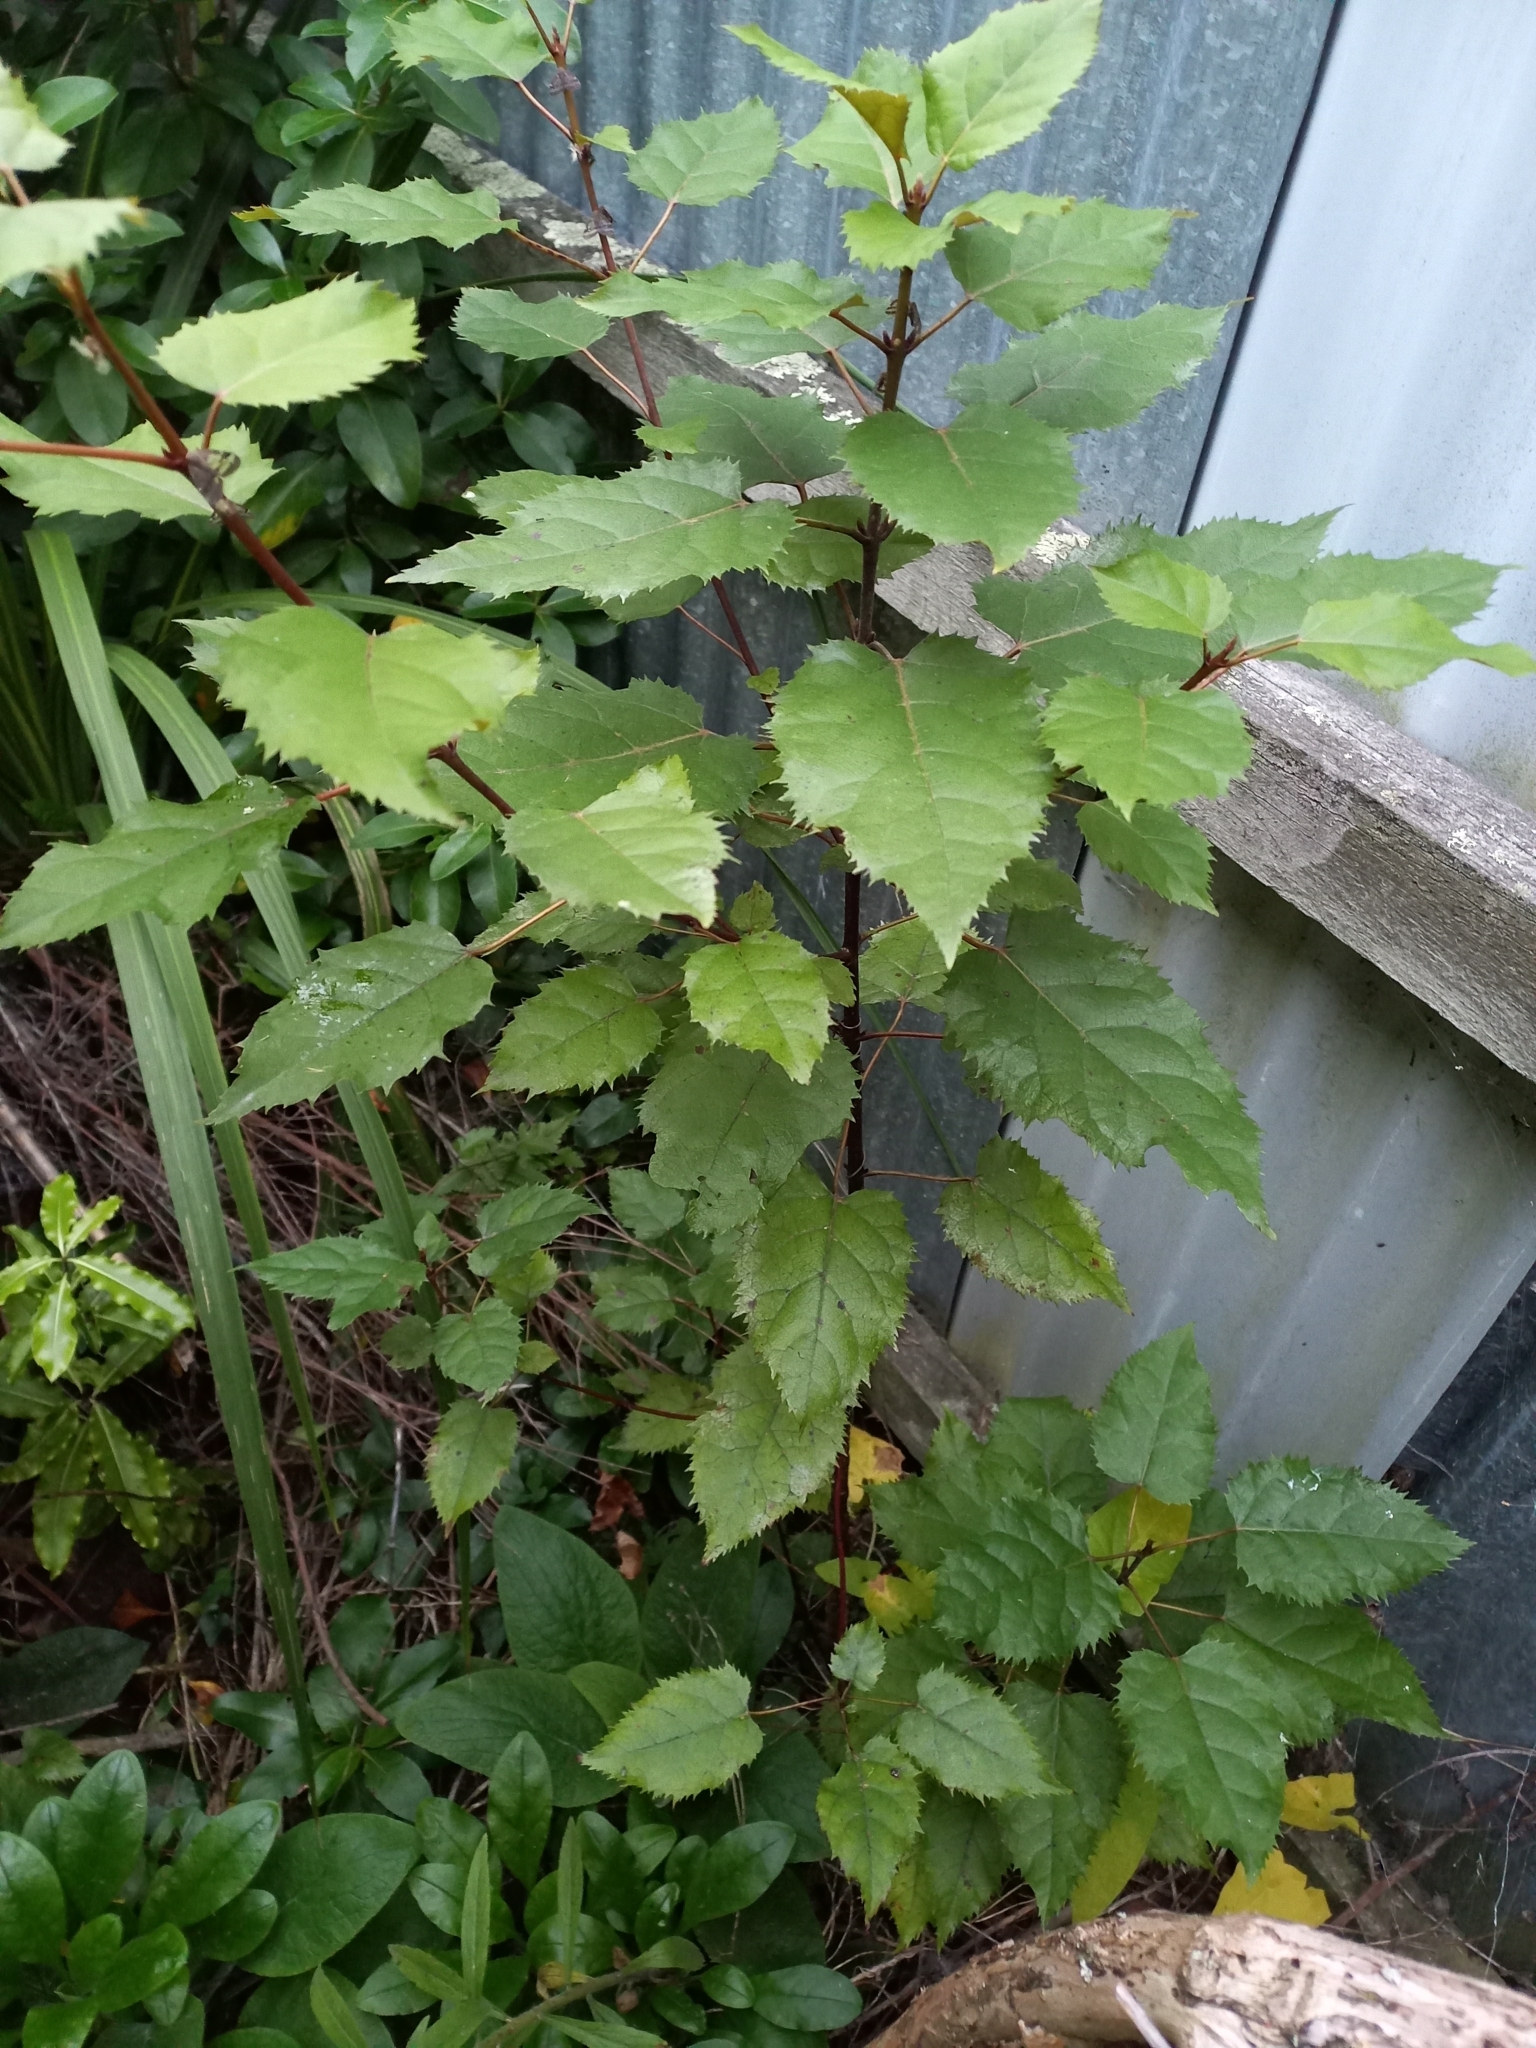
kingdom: Plantae
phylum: Tracheophyta
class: Magnoliopsida
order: Oxalidales
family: Elaeocarpaceae
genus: Aristotelia
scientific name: Aristotelia serrata
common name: New zealand wineberry
